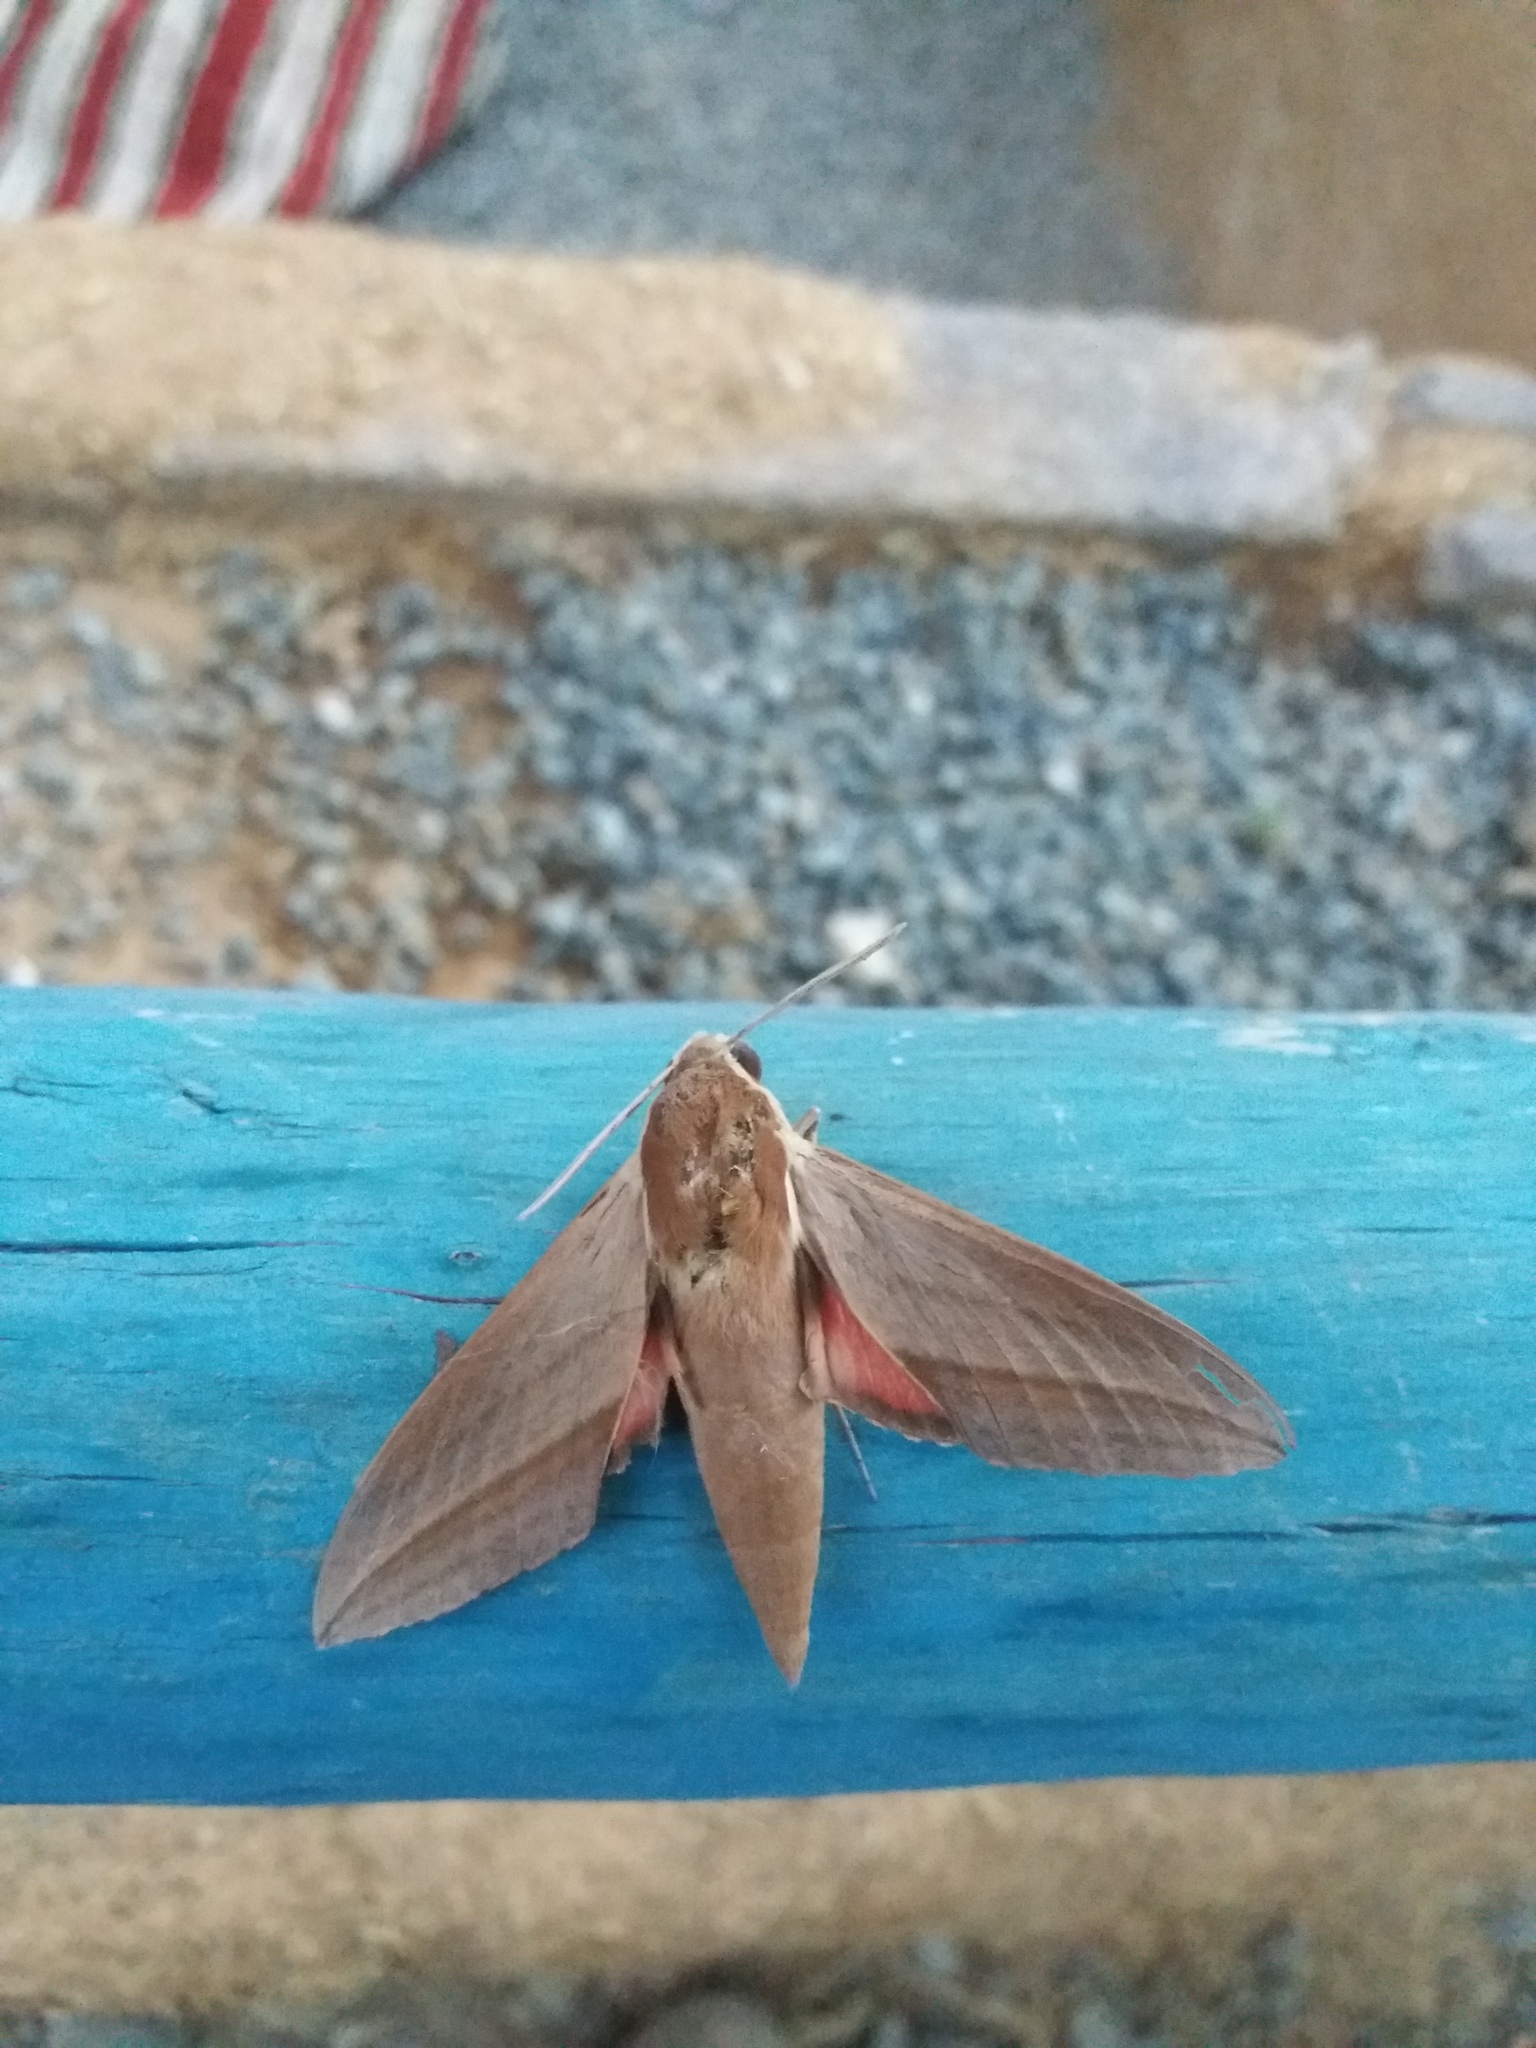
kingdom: Animalia
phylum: Arthropoda
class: Insecta
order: Lepidoptera
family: Sphingidae
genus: Theretra
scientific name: Theretra alecto
